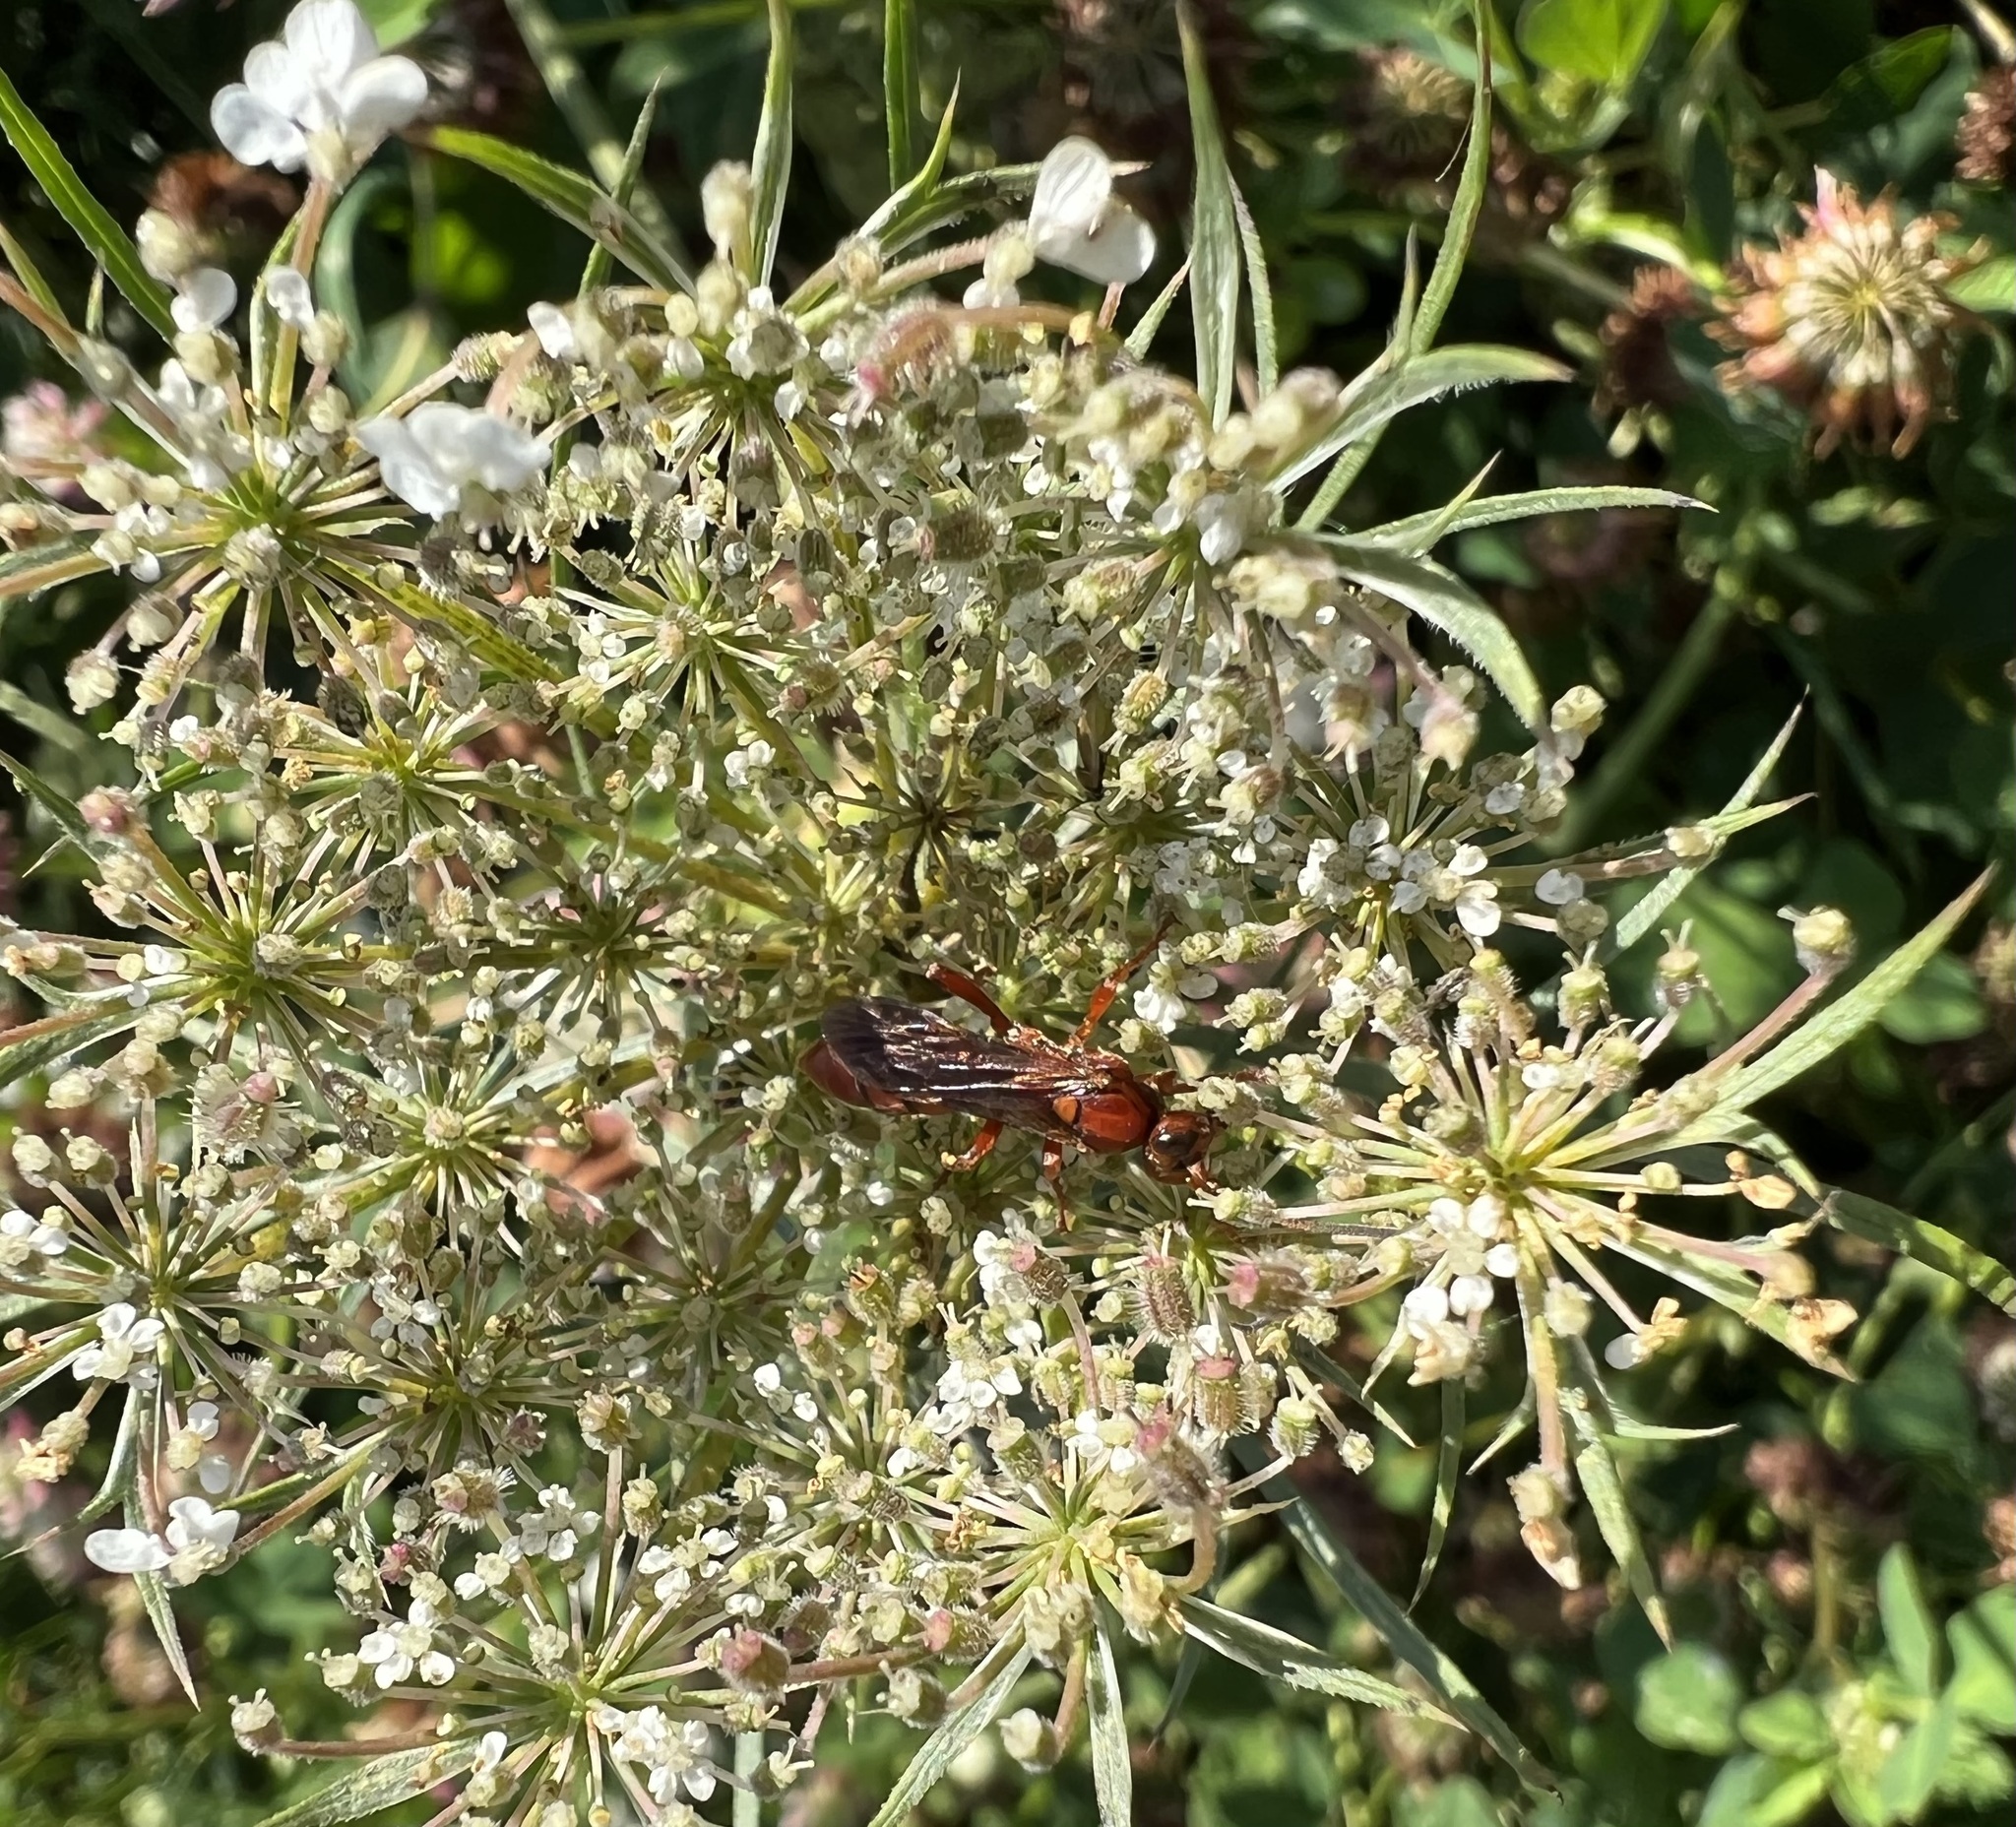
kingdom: Animalia
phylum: Arthropoda
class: Insecta
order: Hymenoptera
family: Ichneumonidae
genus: Spilichneumon
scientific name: Spilichneumon
